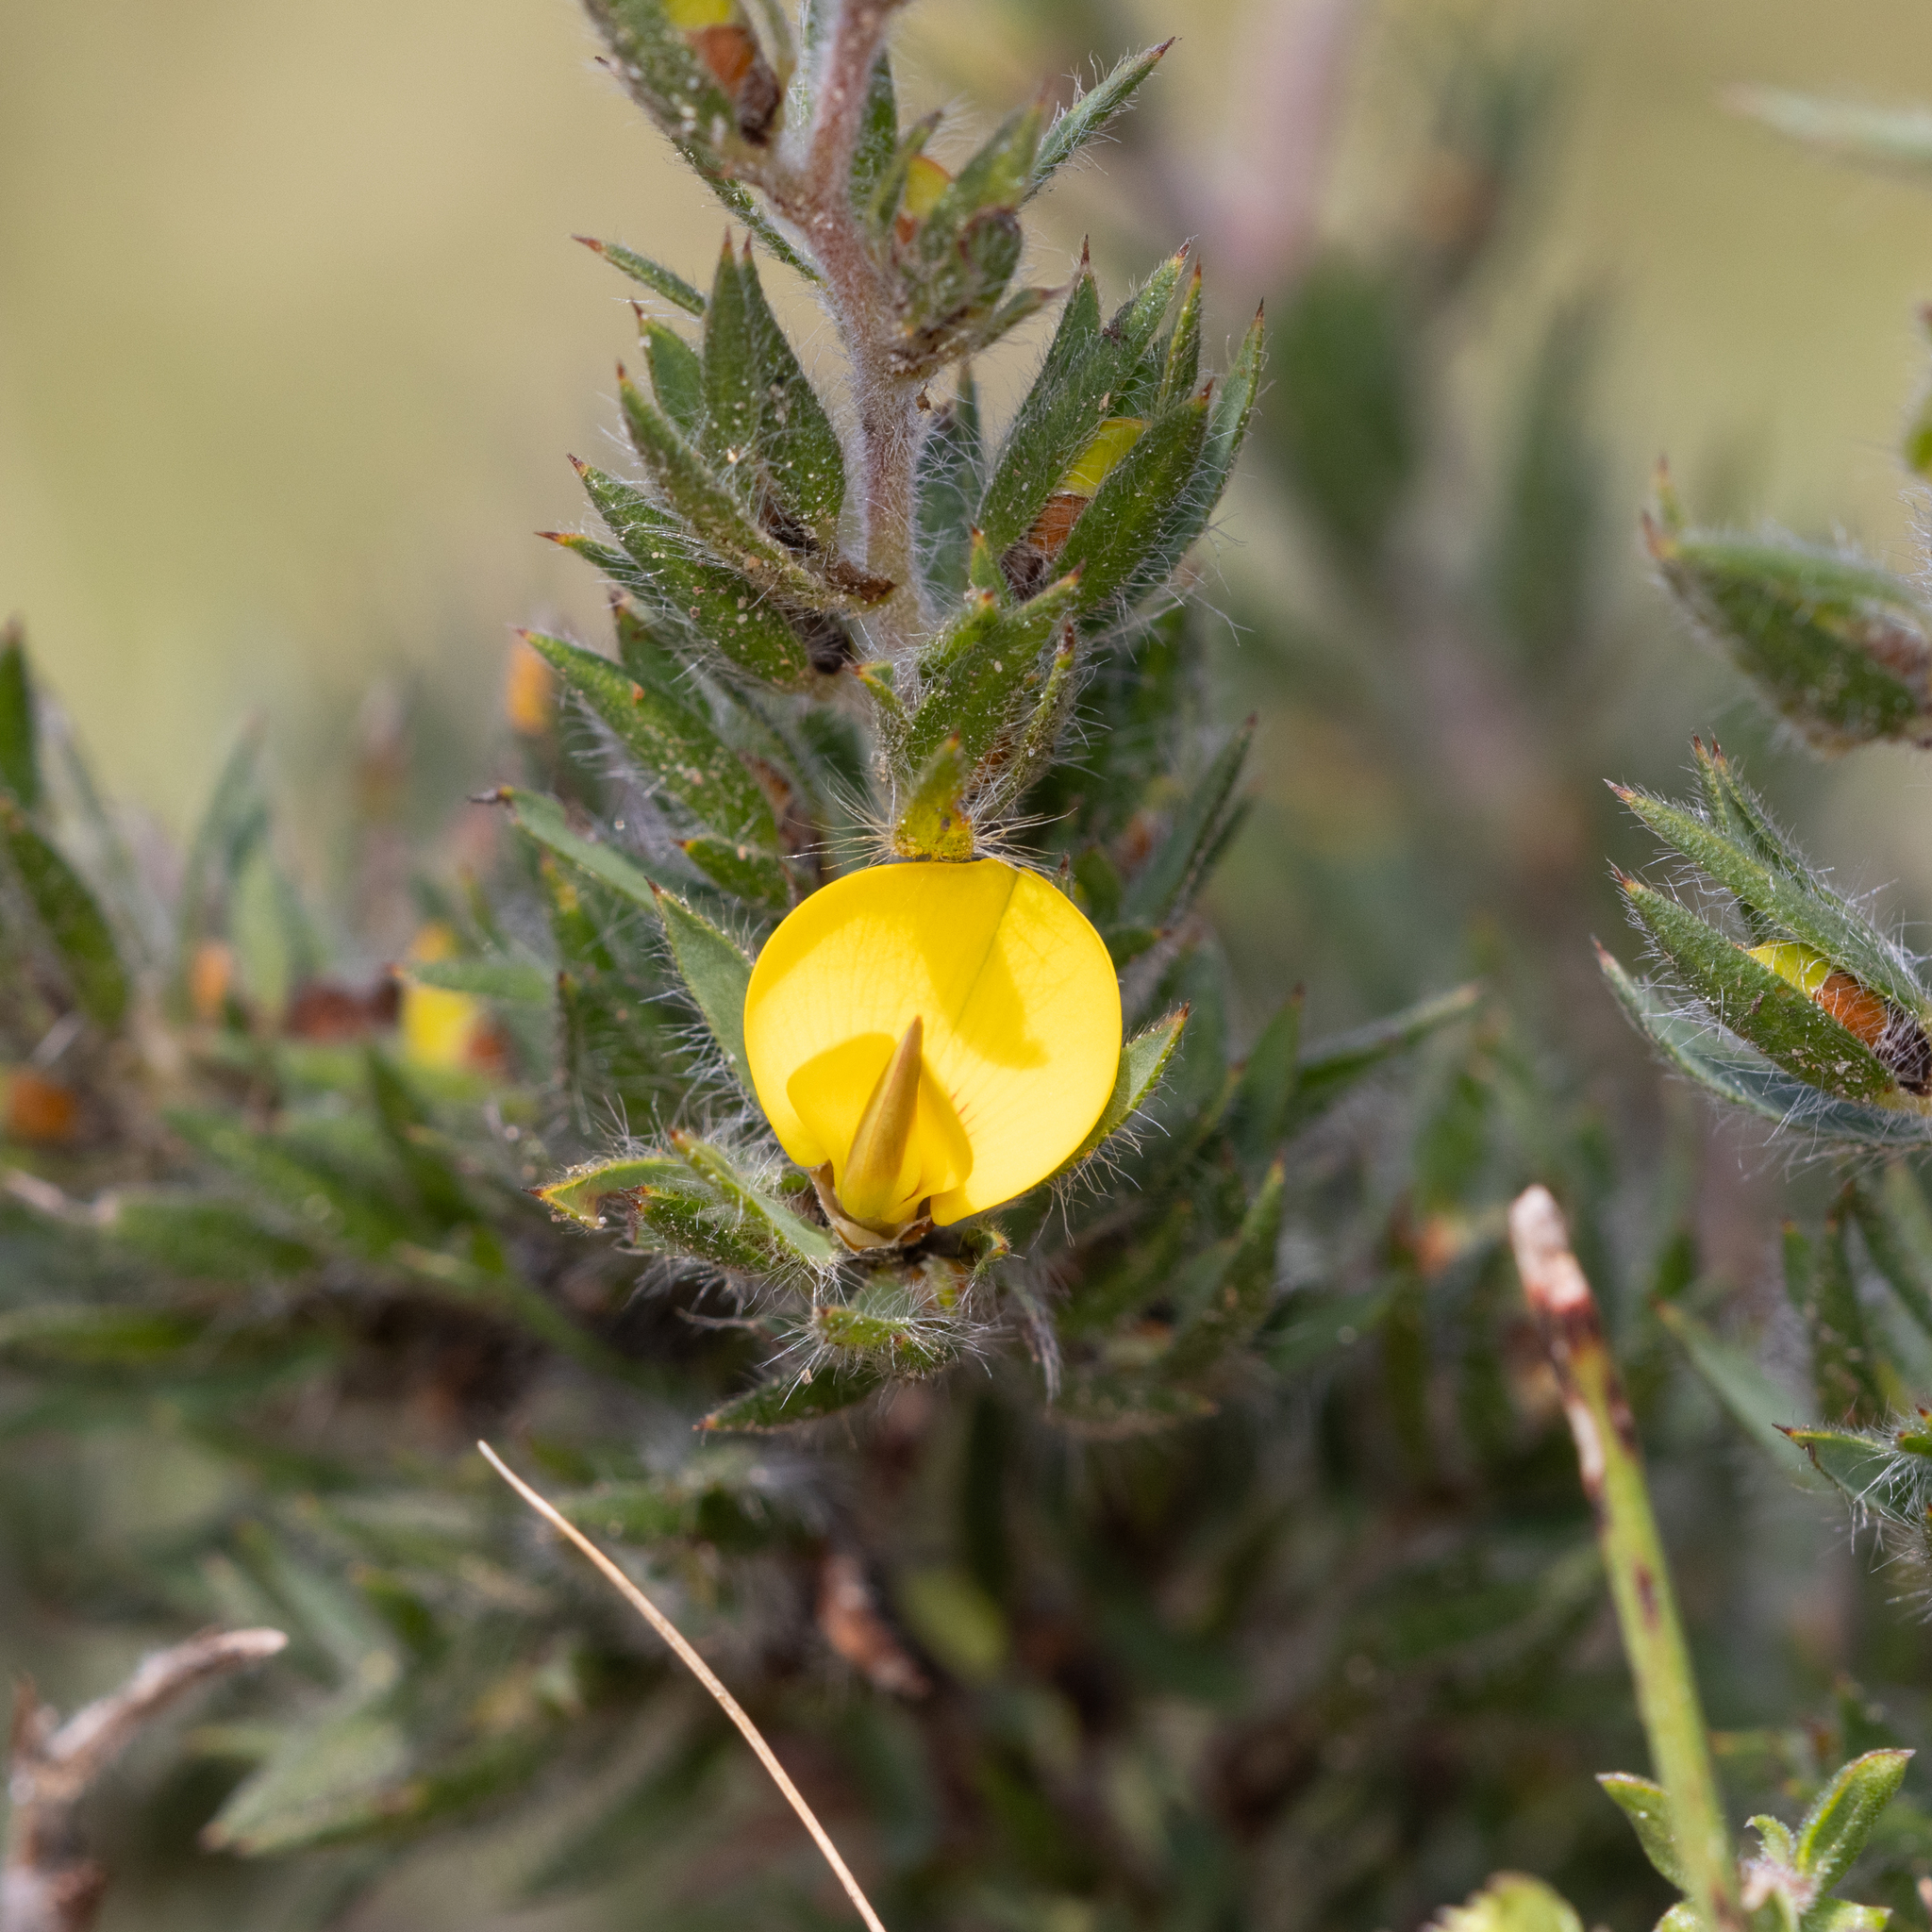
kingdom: Plantae
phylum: Tracheophyta
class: Magnoliopsida
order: Fabales
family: Fabaceae
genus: Pultenaea
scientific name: Pultenaea involucrata
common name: Mount lofty bush-pea
